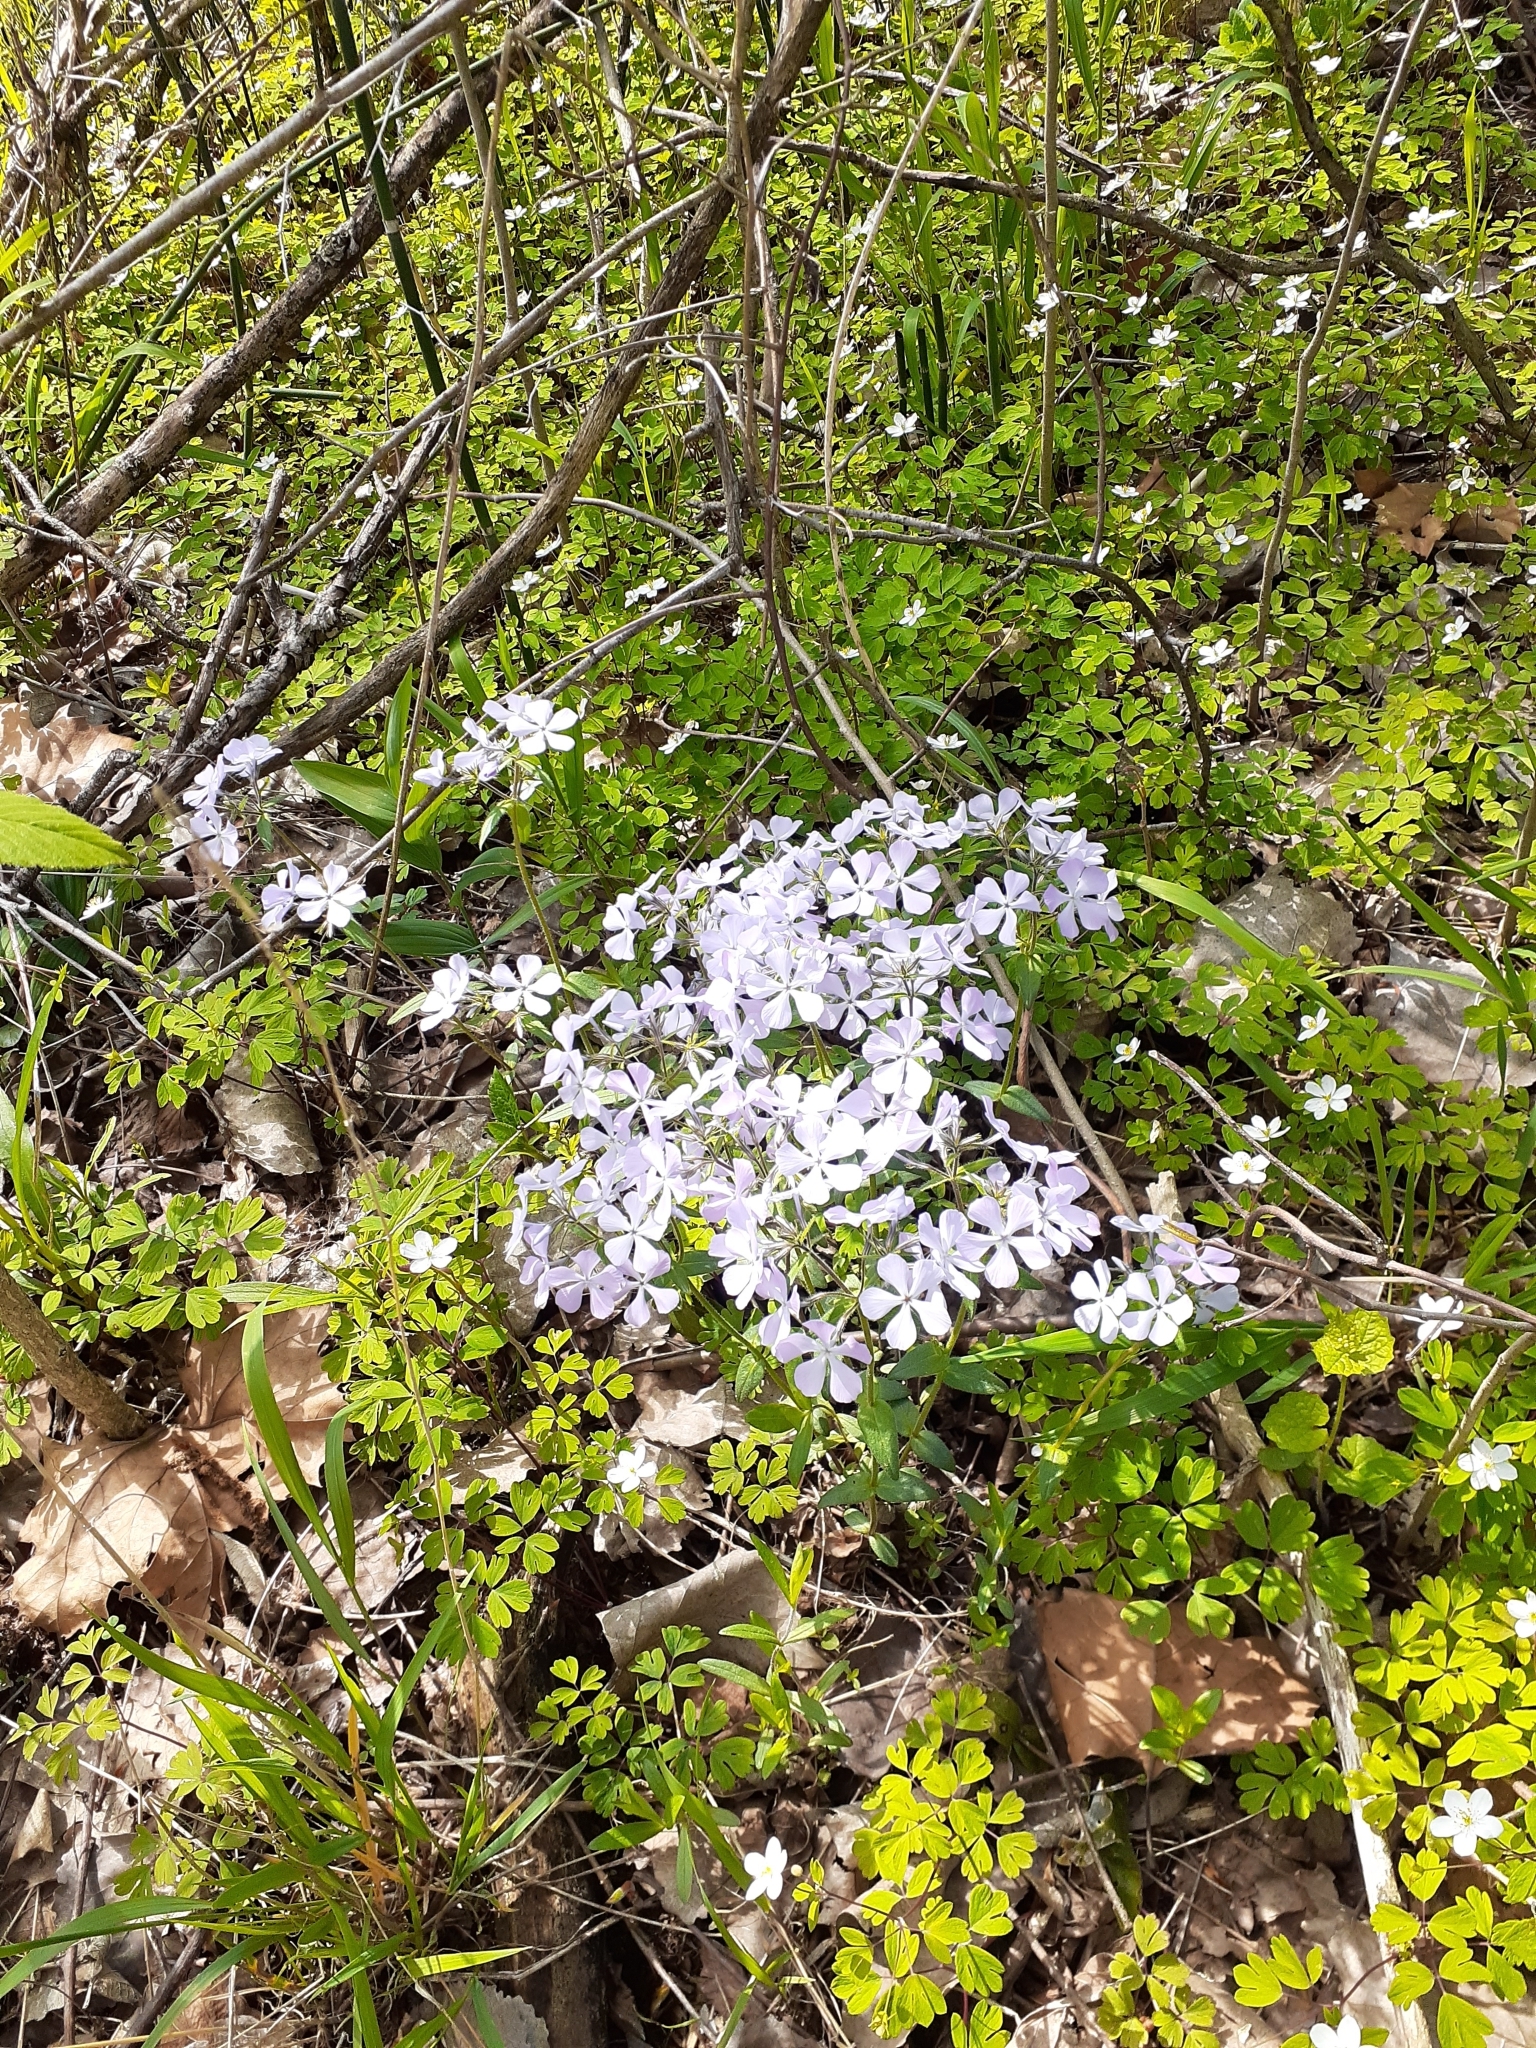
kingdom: Plantae
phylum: Tracheophyta
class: Magnoliopsida
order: Ericales
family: Polemoniaceae
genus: Phlox
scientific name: Phlox divaricata
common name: Blue phlox
